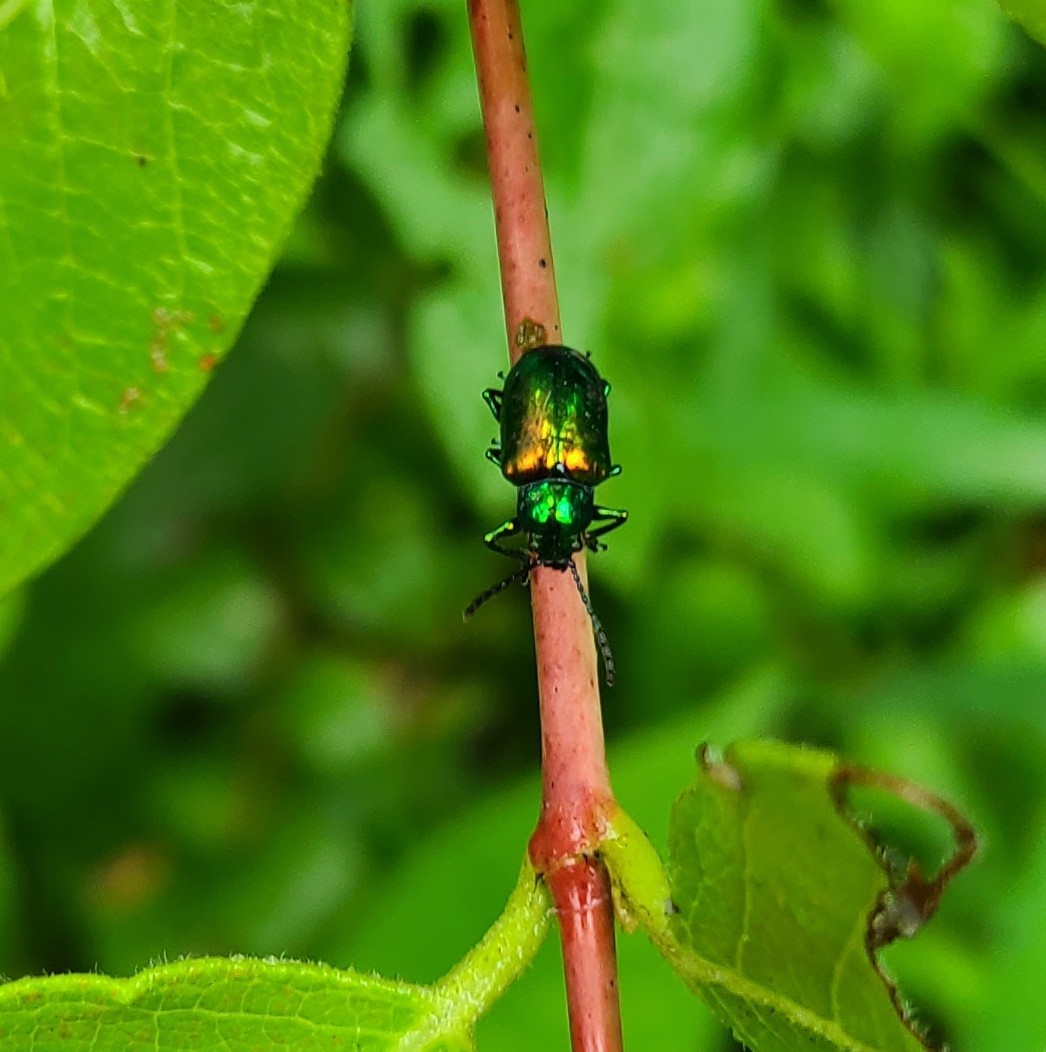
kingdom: Animalia
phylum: Arthropoda
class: Insecta
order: Coleoptera
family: Chrysomelidae
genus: Chrysochus
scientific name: Chrysochus auratus
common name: Dogbane leaf beetle
